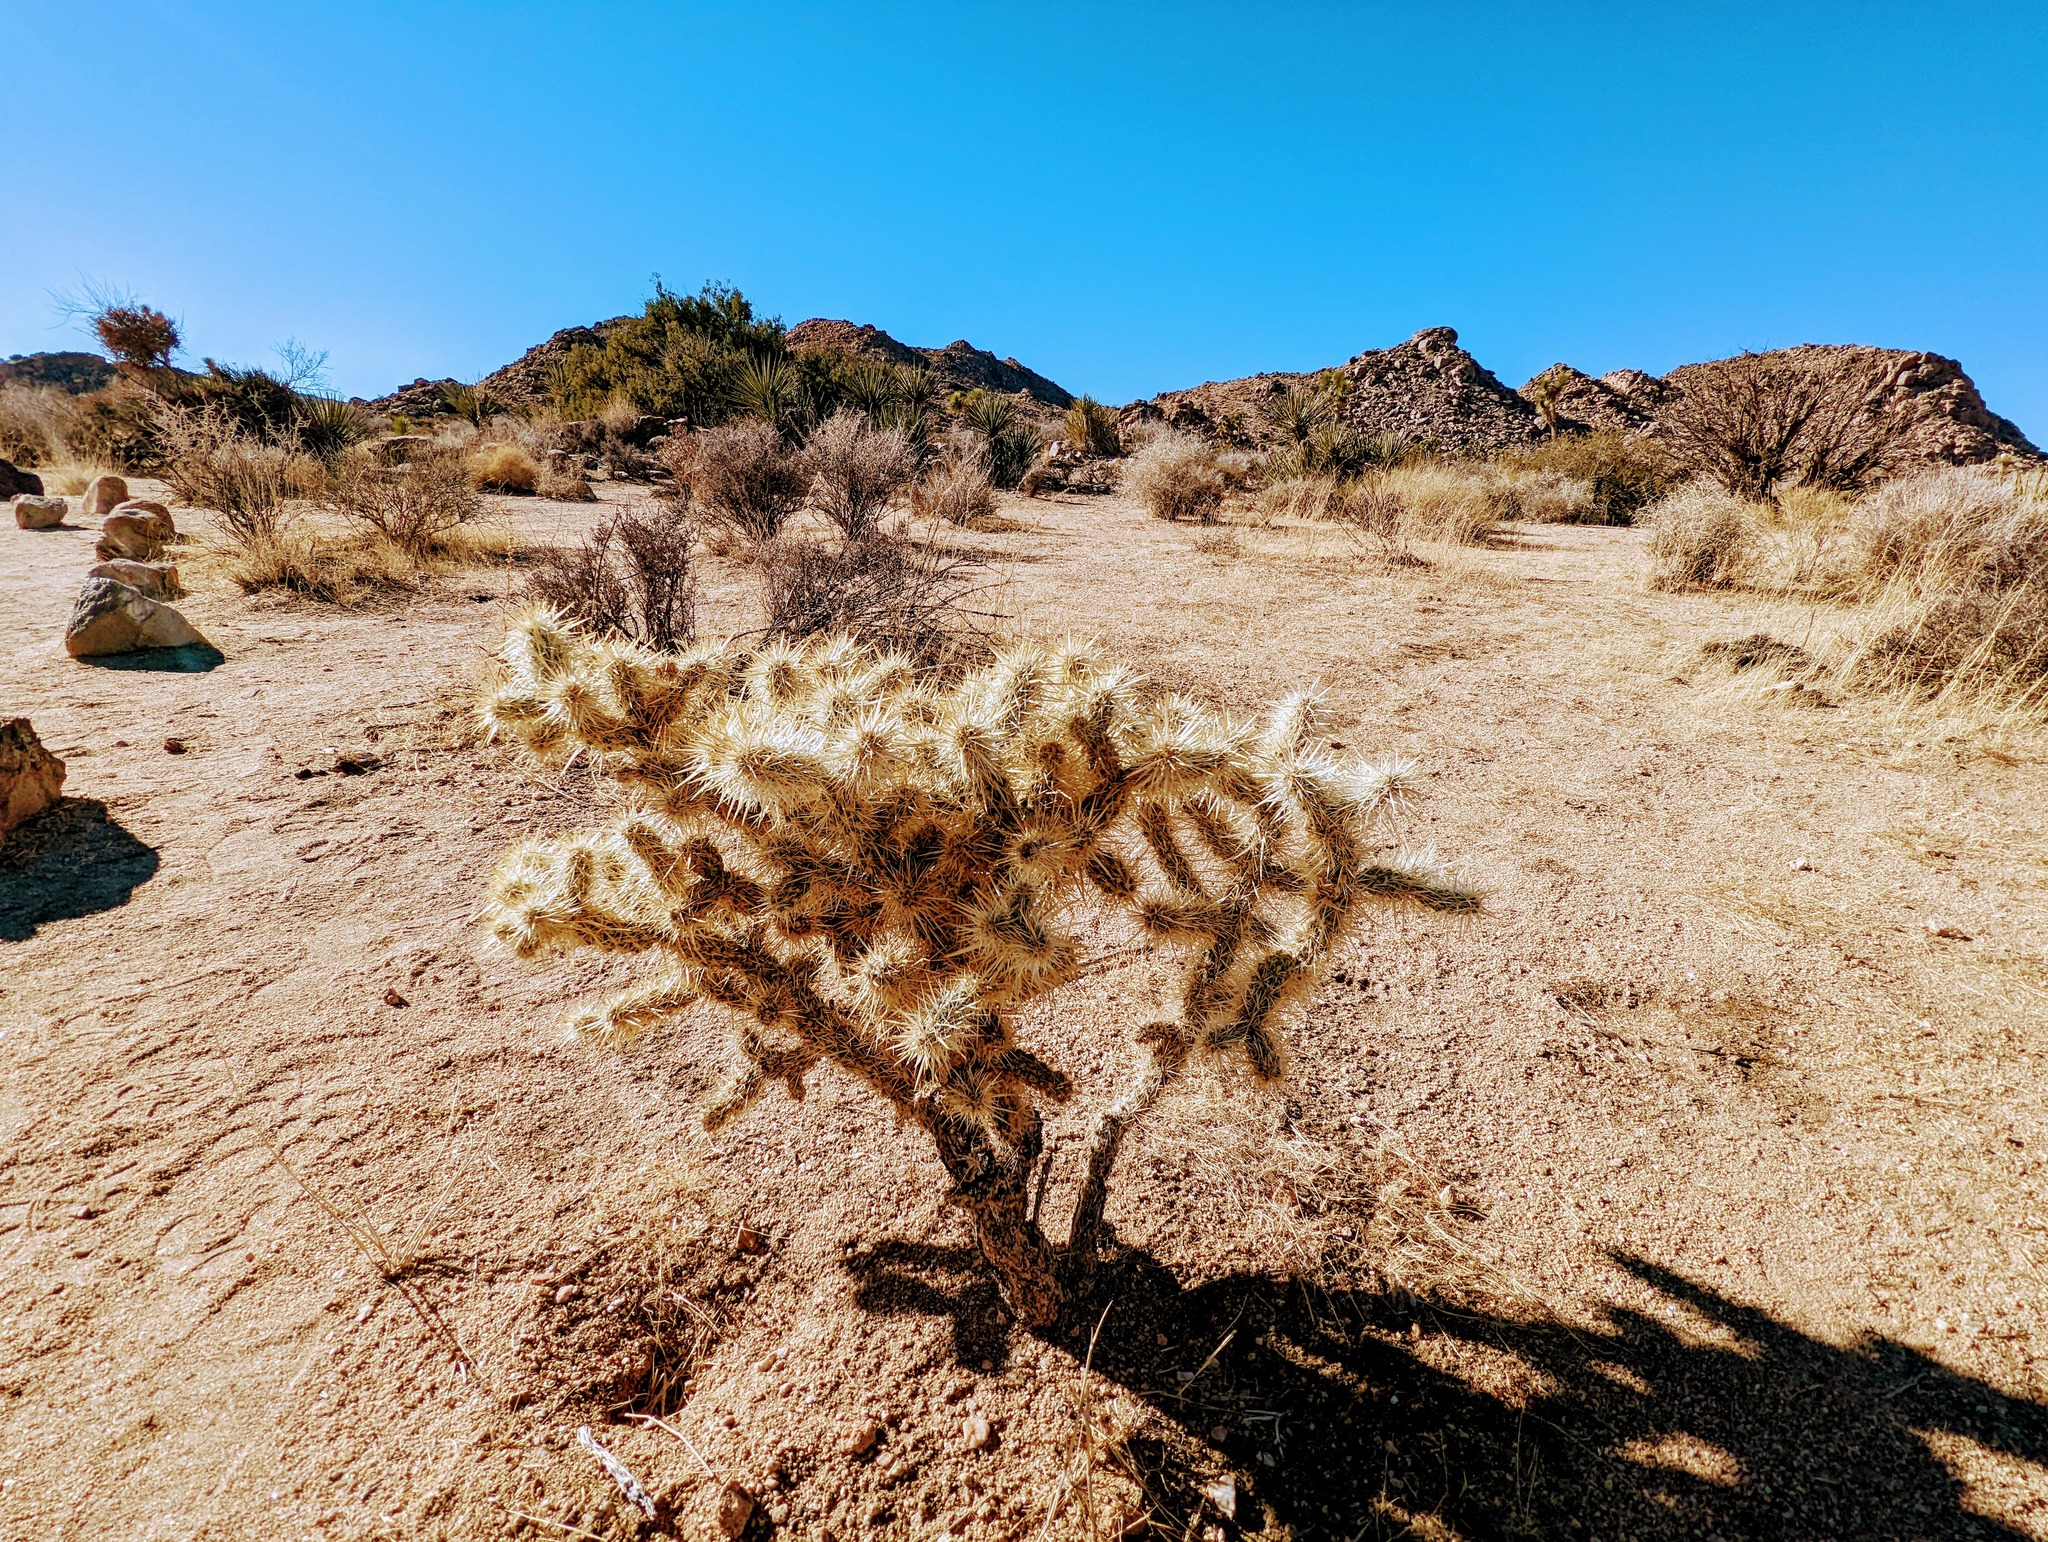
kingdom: Plantae
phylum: Tracheophyta
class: Magnoliopsida
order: Caryophyllales
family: Cactaceae
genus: Cylindropuntia
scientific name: Cylindropuntia echinocarpa
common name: Ground cholla
